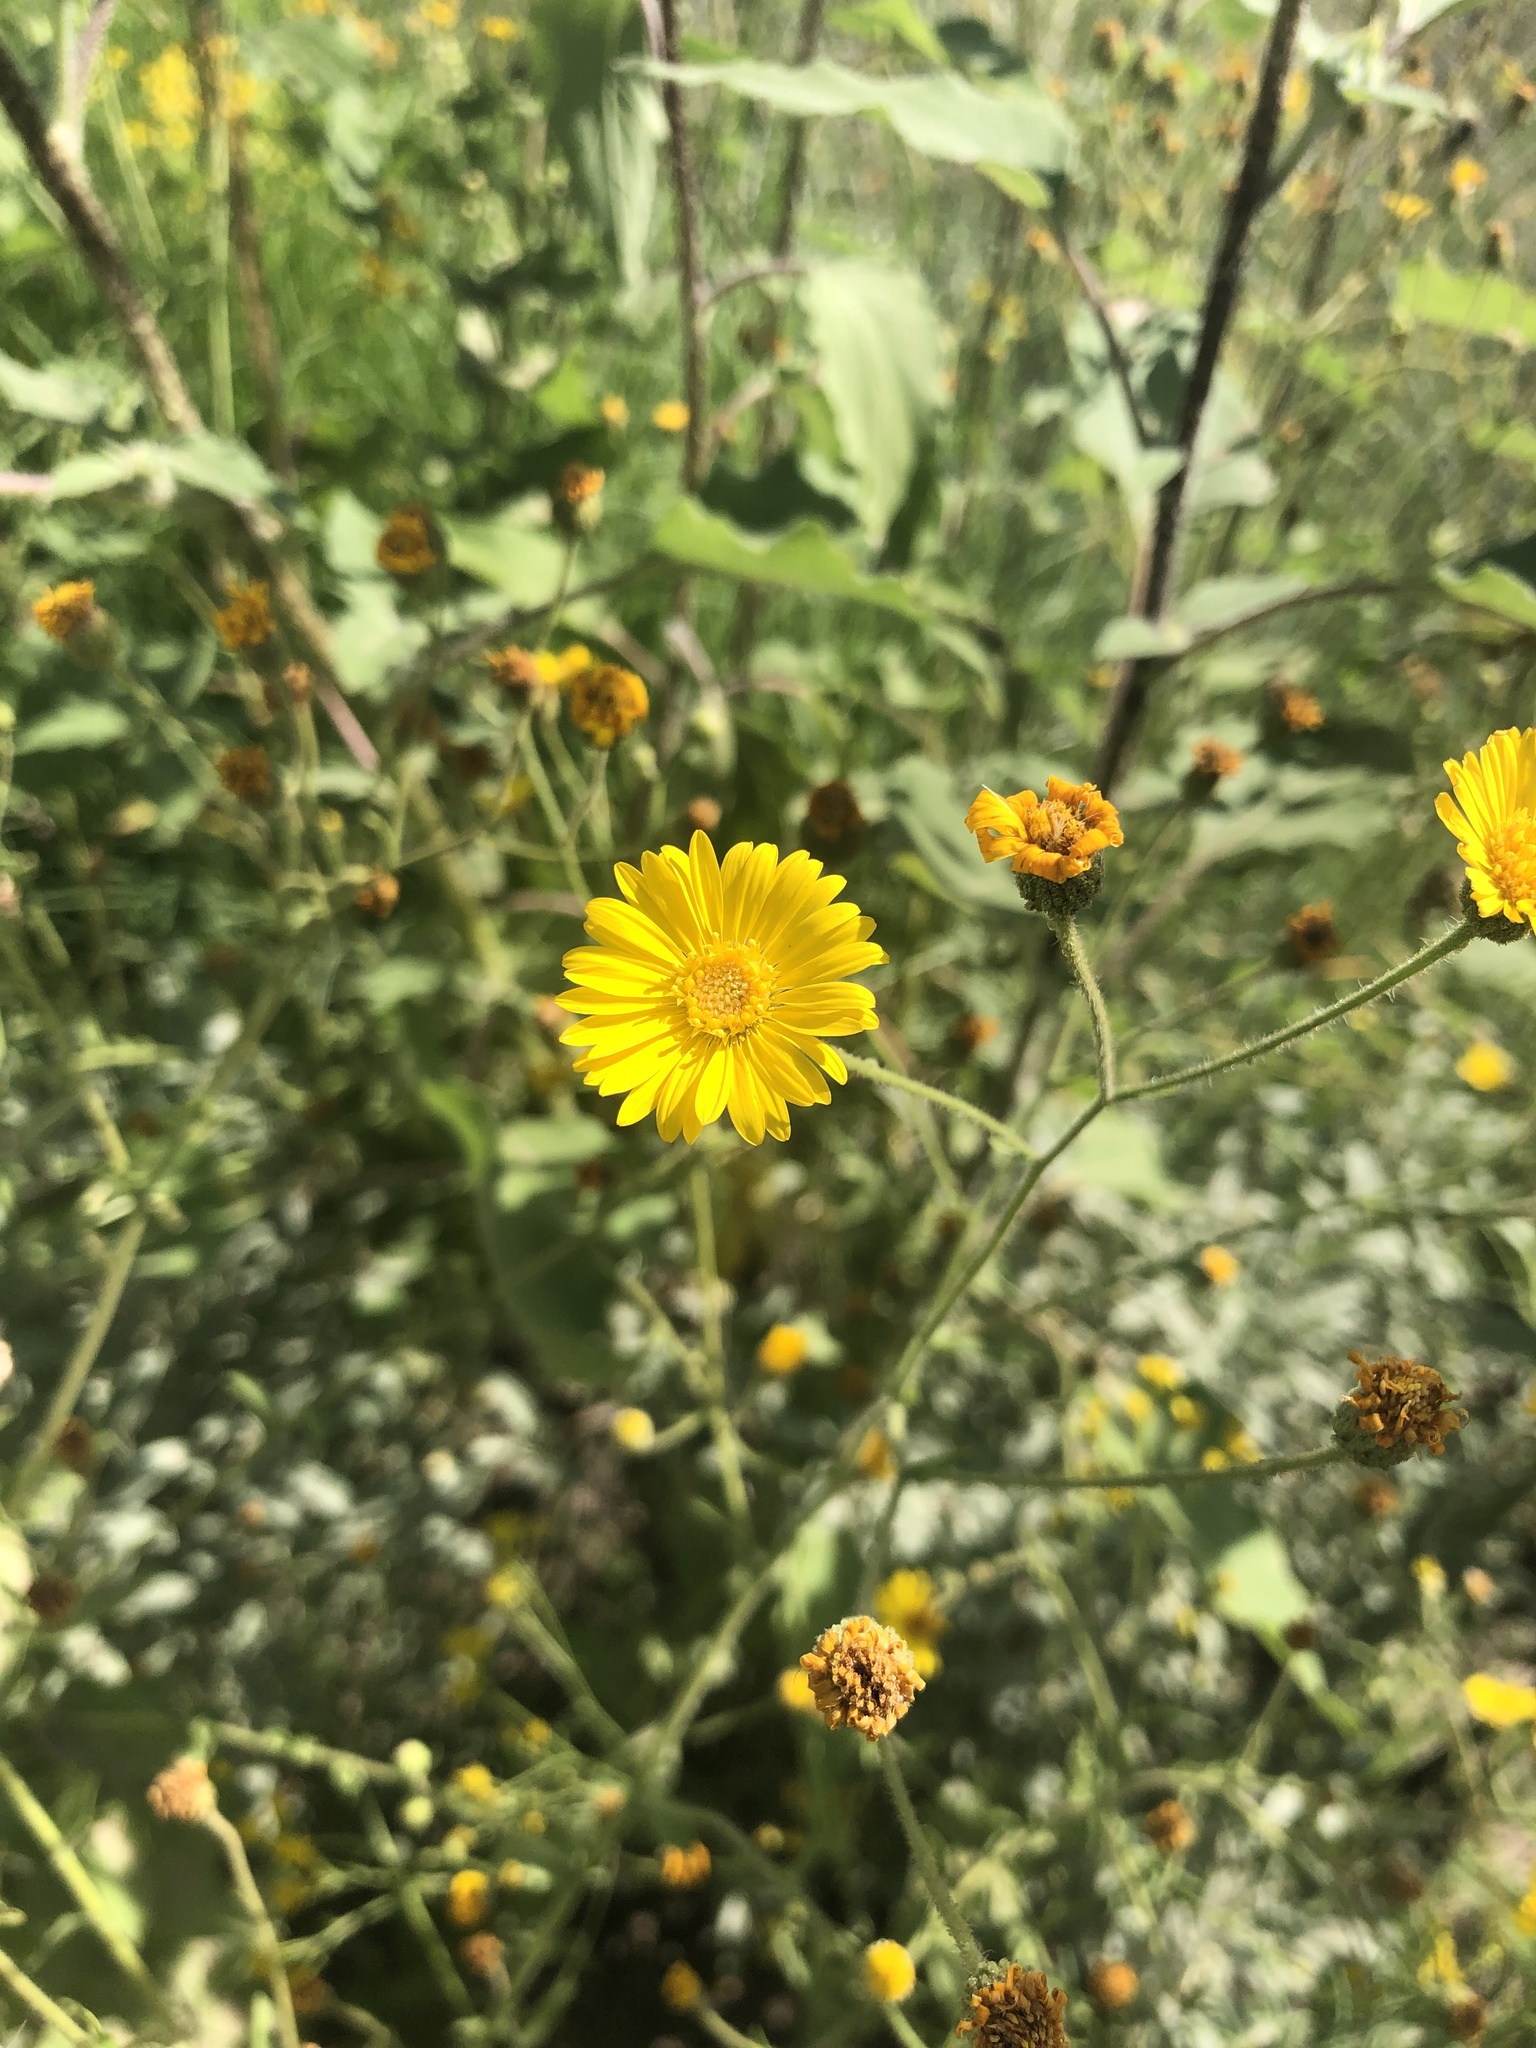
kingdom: Plantae
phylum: Tracheophyta
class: Magnoliopsida
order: Asterales
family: Asteraceae
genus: Heterotheca
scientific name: Heterotheca subaxillaris
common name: Camphorweed
